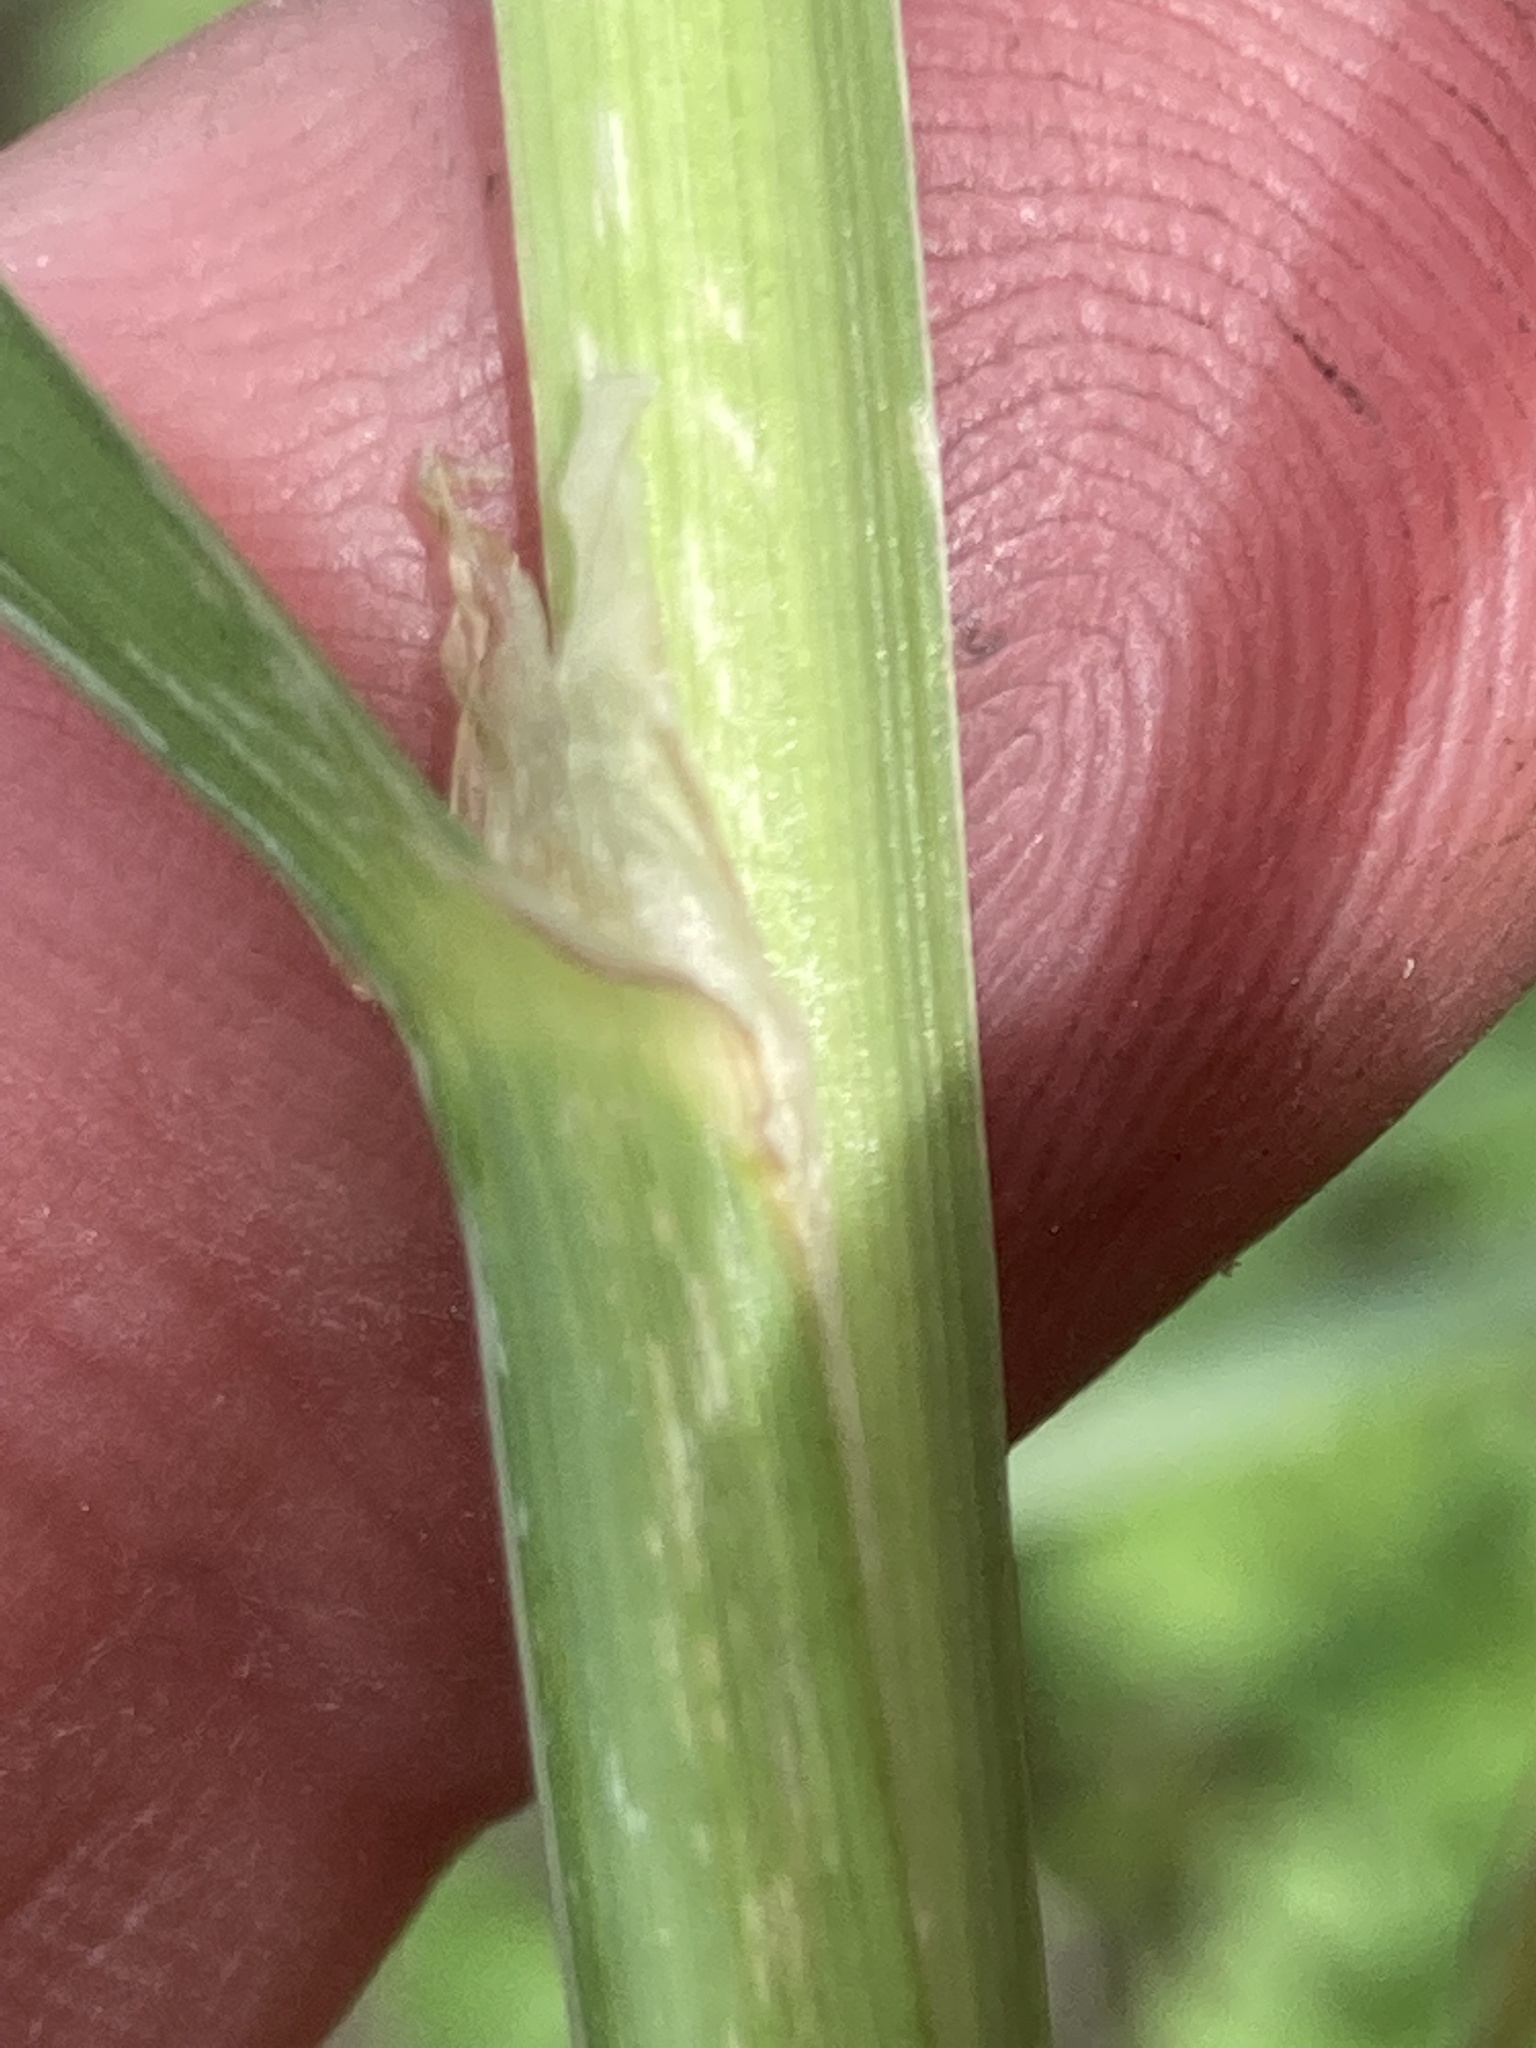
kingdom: Plantae
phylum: Tracheophyta
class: Liliopsida
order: Poales
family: Poaceae
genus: Dactylis
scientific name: Dactylis glomerata
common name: Orchardgrass
